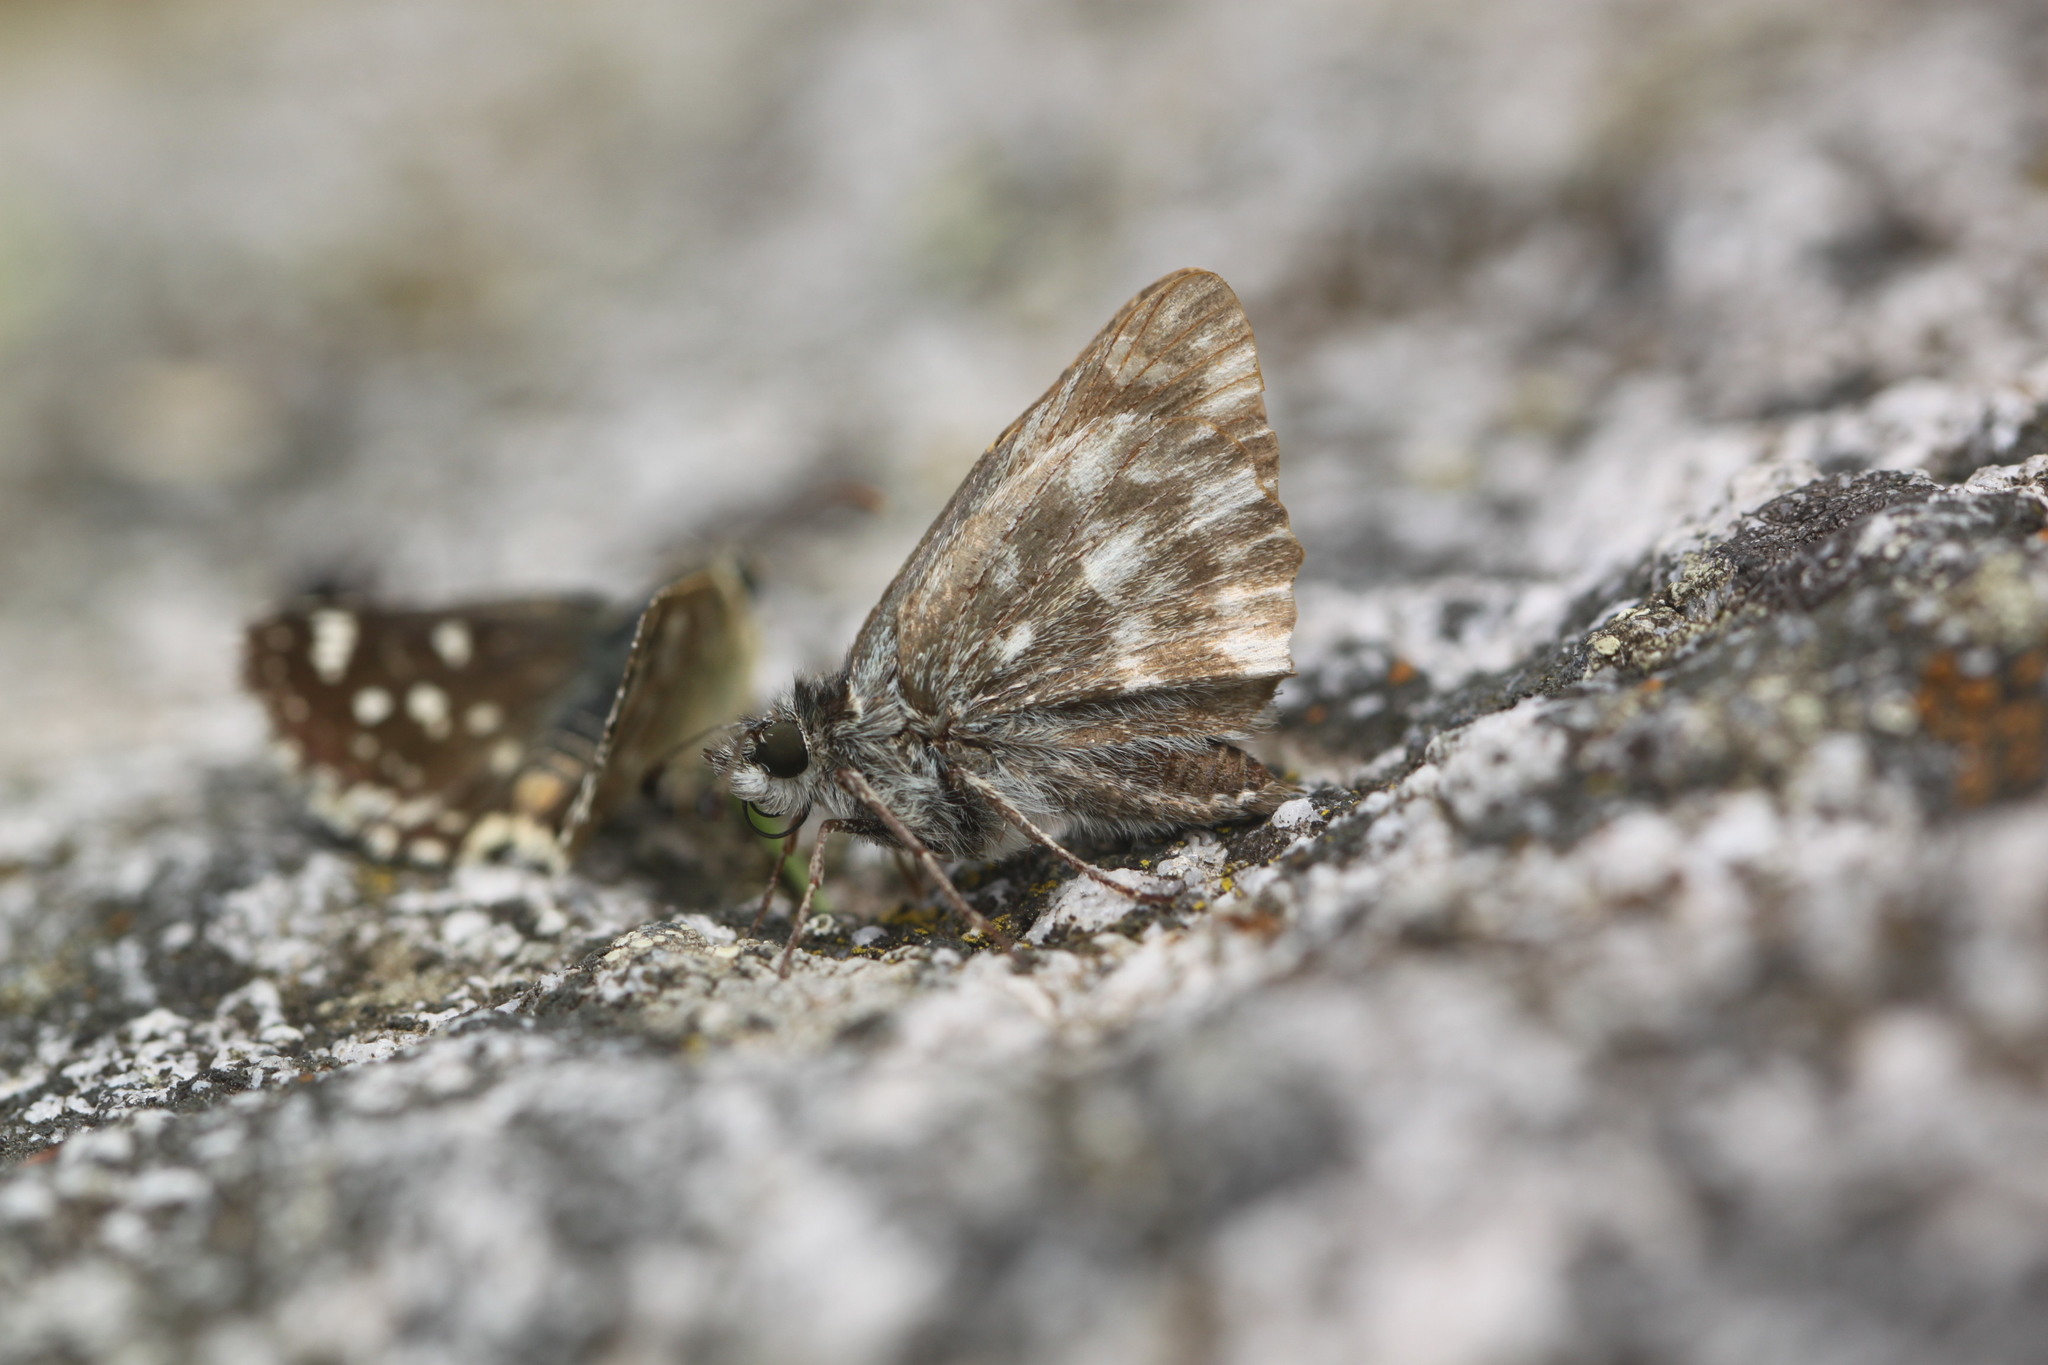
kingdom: Animalia
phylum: Arthropoda
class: Insecta
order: Lepidoptera
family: Hesperiidae
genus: Carcharodus
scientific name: Carcharodus floccifera
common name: Tufted marbled skipper
